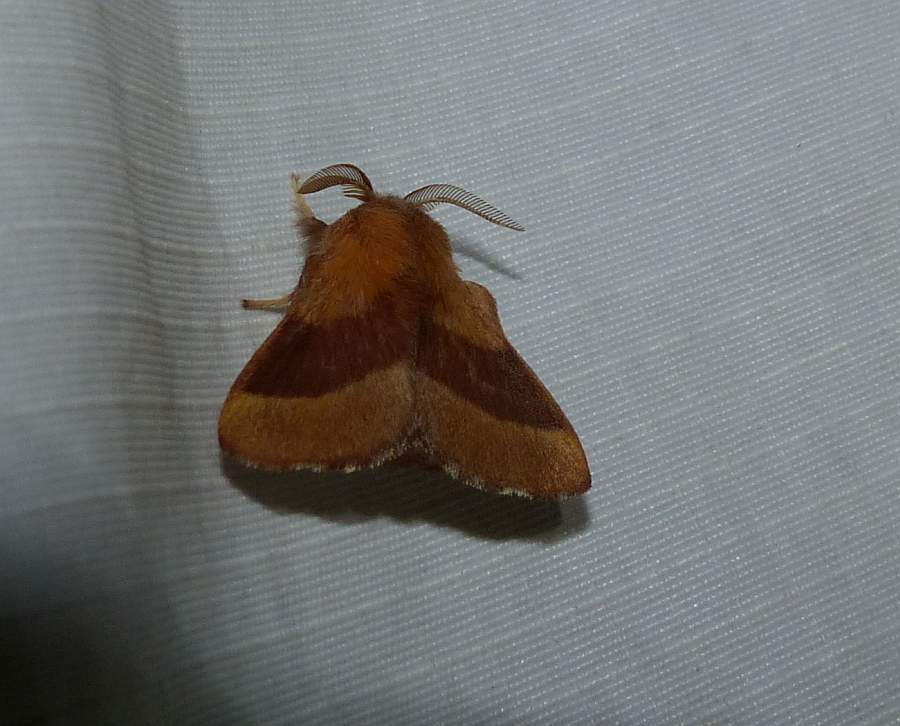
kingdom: Animalia
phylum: Arthropoda
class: Insecta
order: Lepidoptera
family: Lasiocampidae
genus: Malacosoma
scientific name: Malacosoma disstria
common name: Forest tent caterpillar
